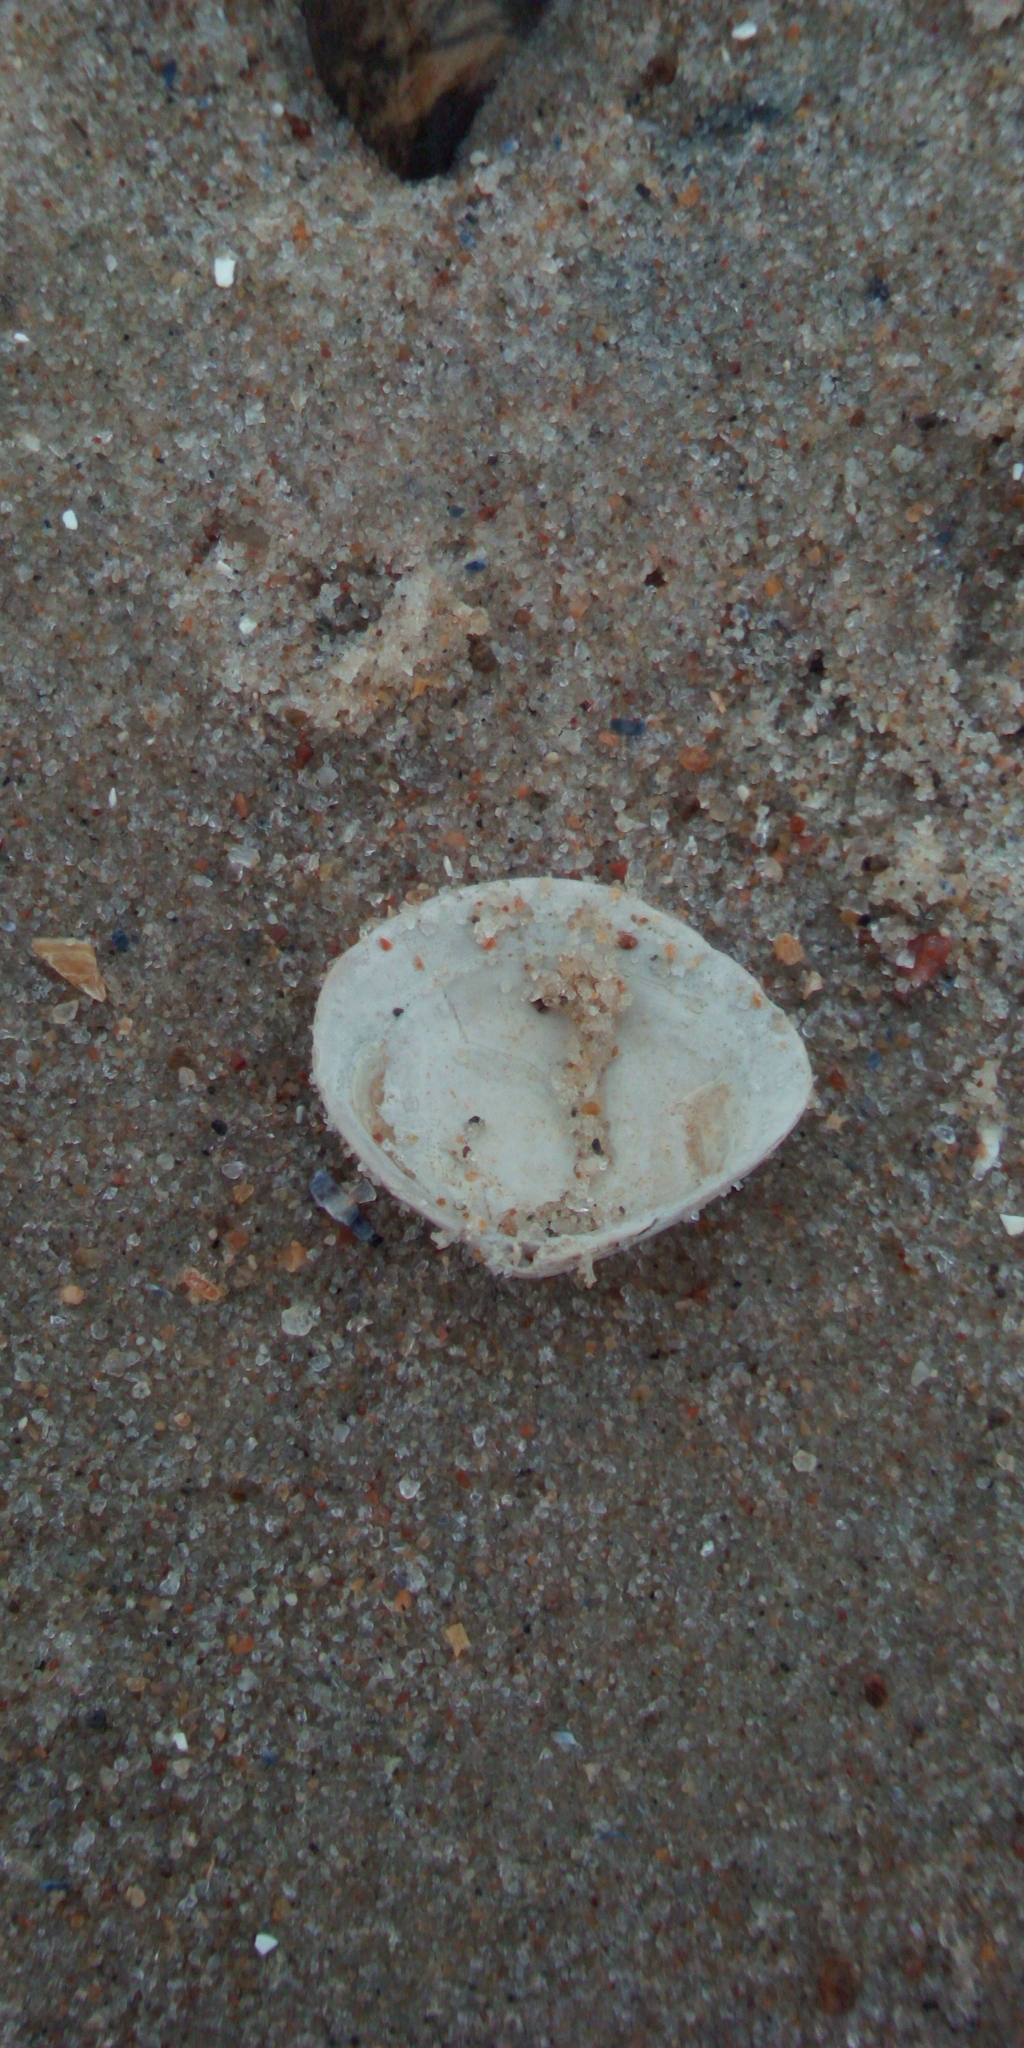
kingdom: Animalia
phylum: Mollusca
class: Bivalvia
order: Cardiida
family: Tellinidae
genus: Macoma
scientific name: Macoma balthica
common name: Baltic tellin
